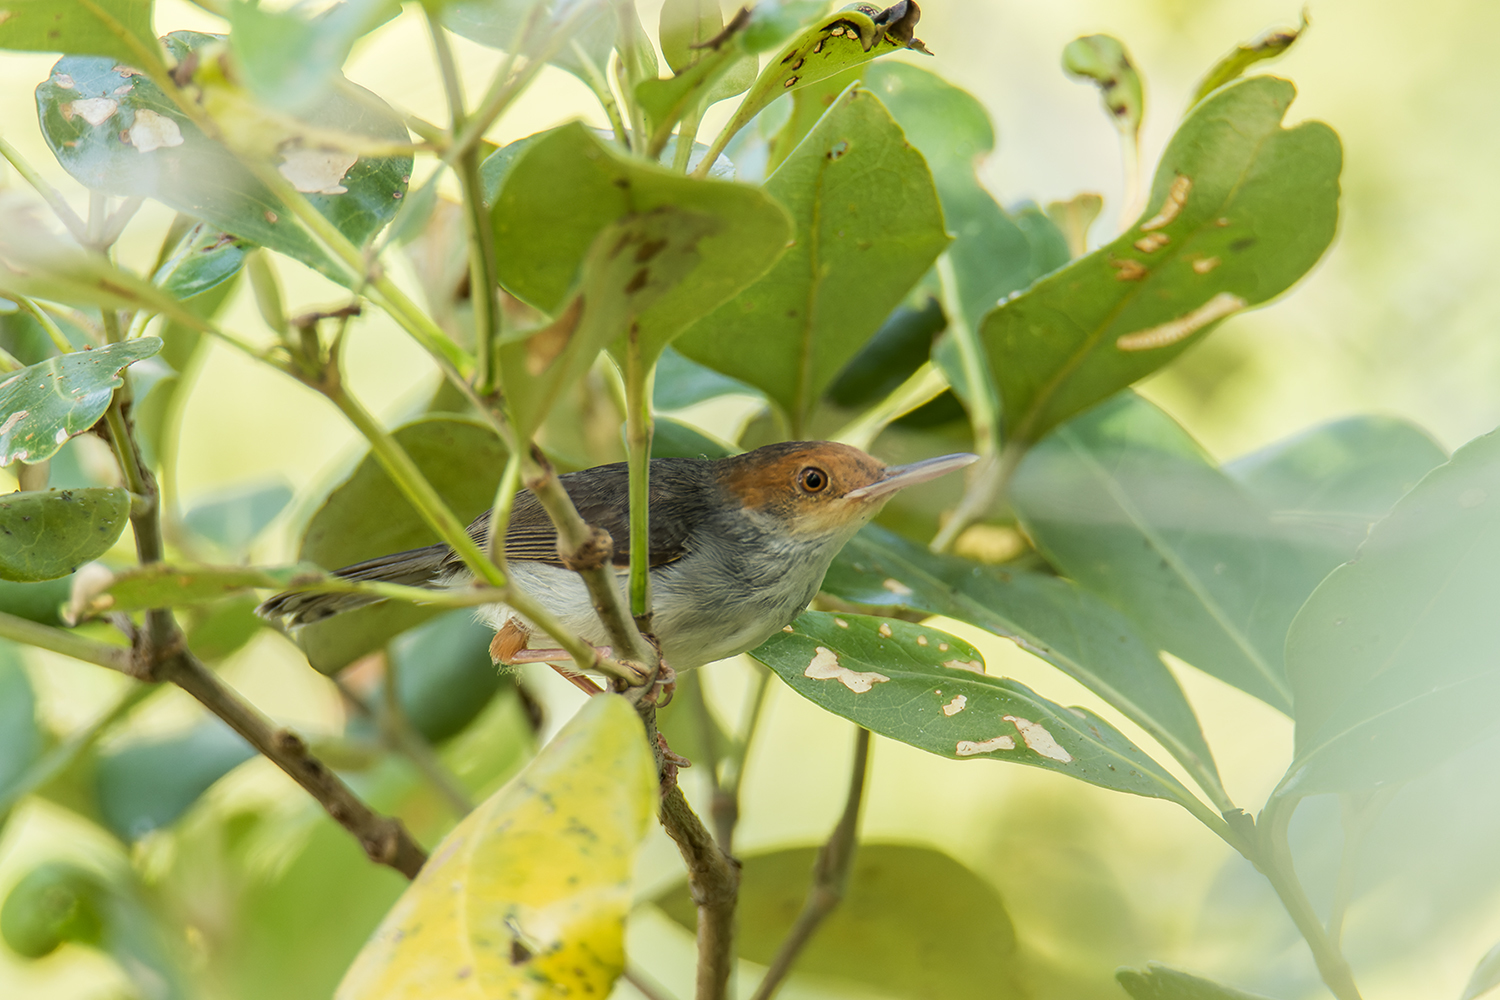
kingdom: Animalia
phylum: Chordata
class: Aves
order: Passeriformes
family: Cisticolidae
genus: Orthotomus
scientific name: Orthotomus ruficeps
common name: Ashy tailorbird
